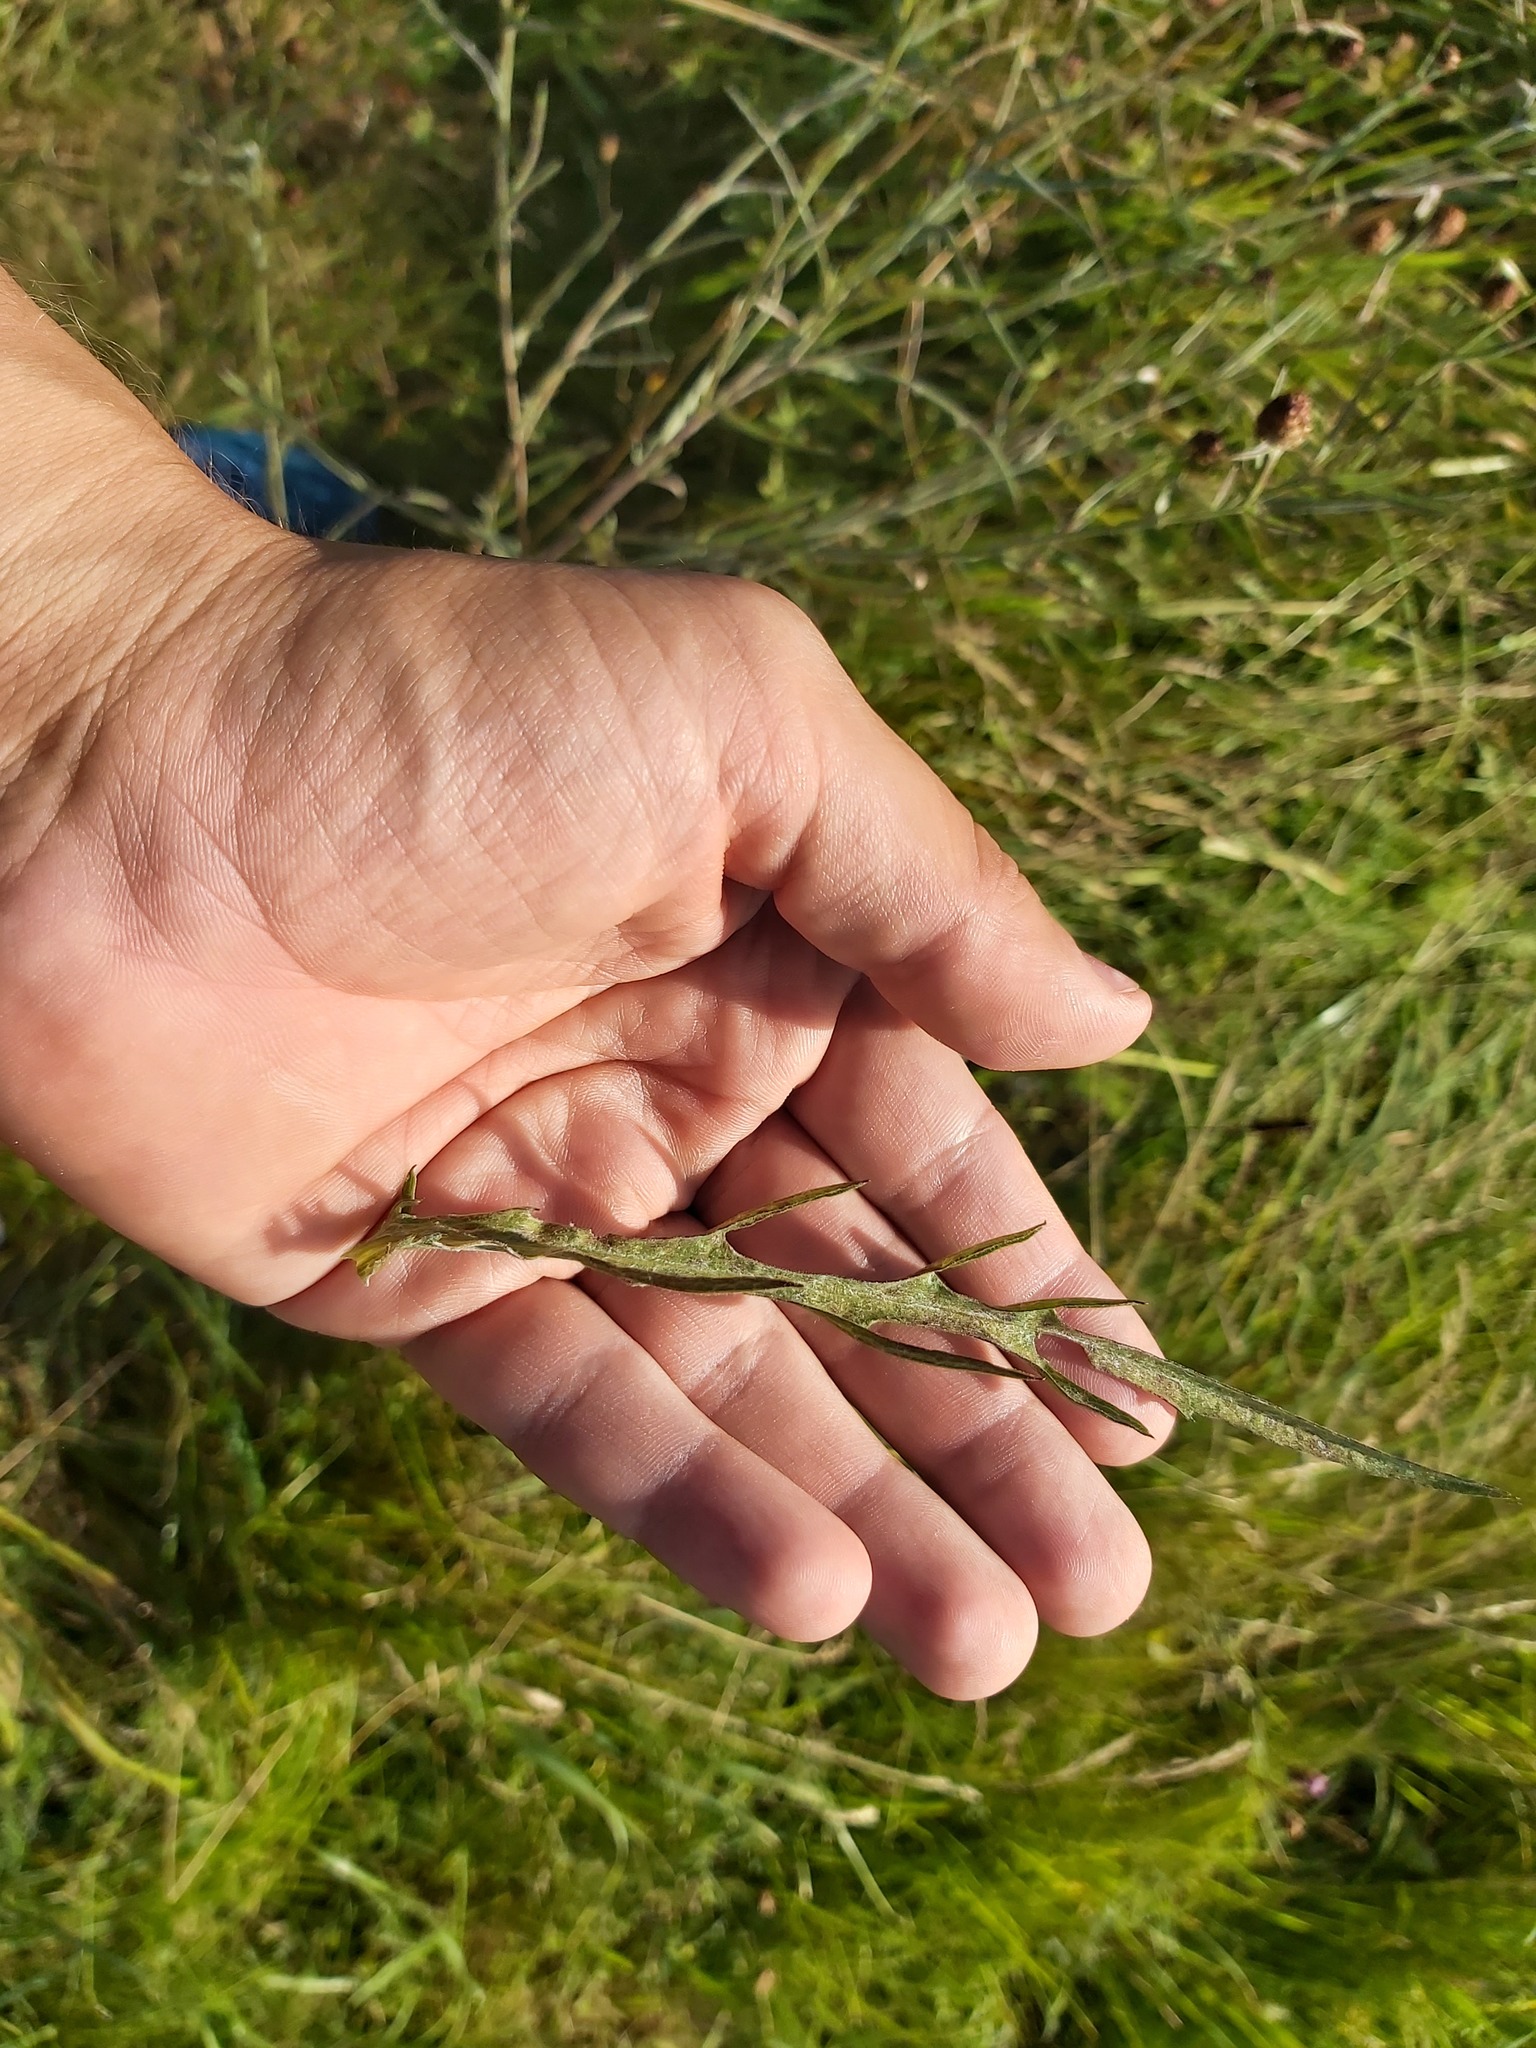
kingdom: Plantae
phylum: Tracheophyta
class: Magnoliopsida
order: Asterales
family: Asteraceae
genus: Centaurea
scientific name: Centaurea jacea
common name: Brown knapweed
